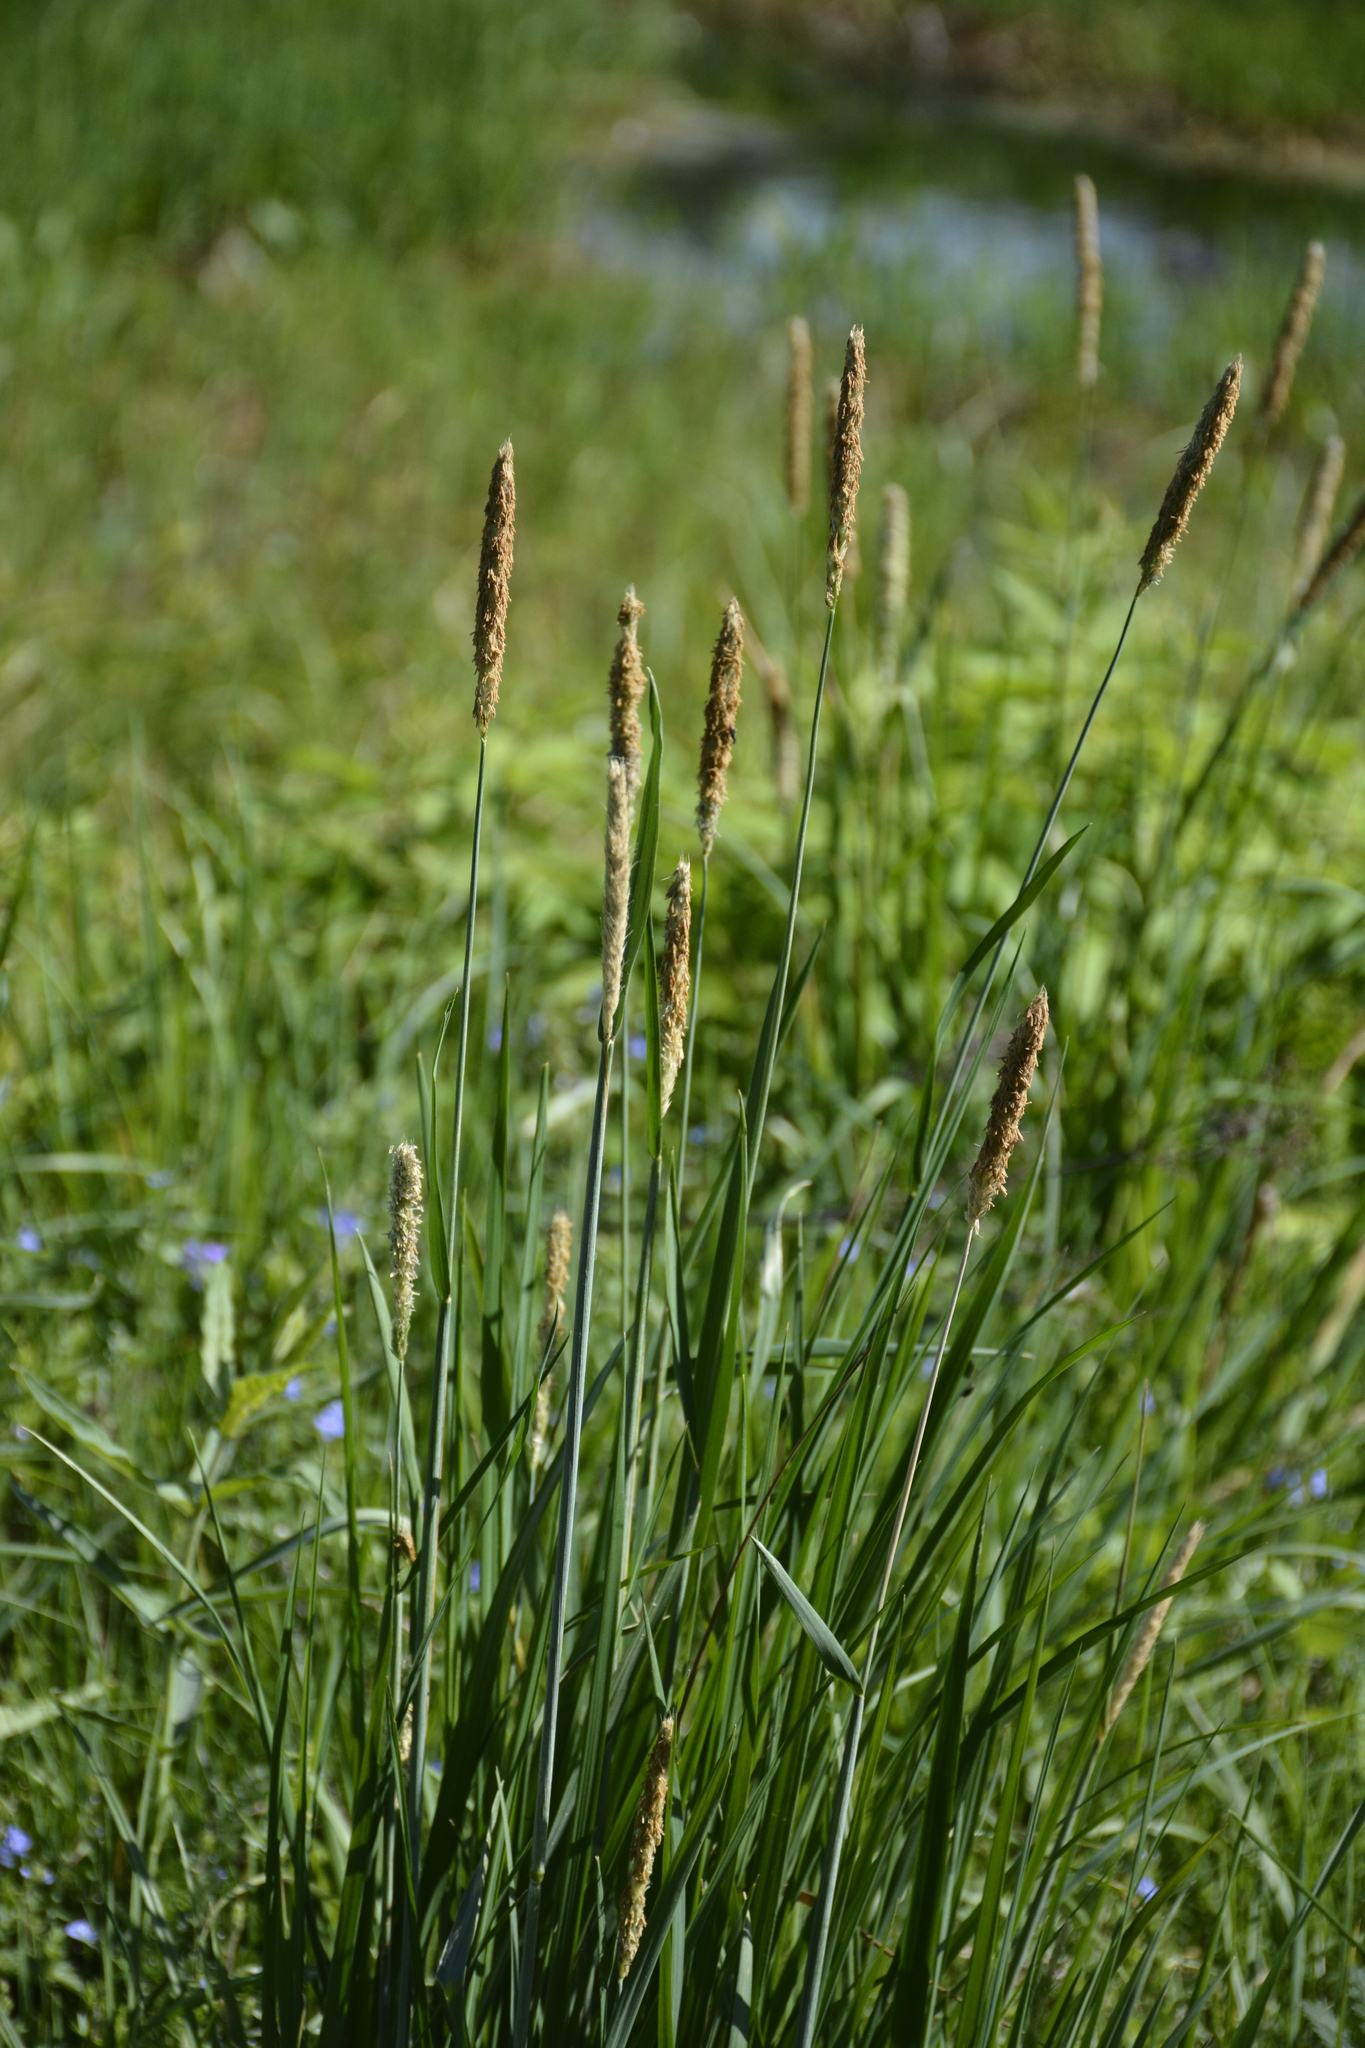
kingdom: Plantae
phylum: Tracheophyta
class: Liliopsida
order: Poales
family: Poaceae
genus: Alopecurus
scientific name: Alopecurus pratensis
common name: Meadow foxtail
